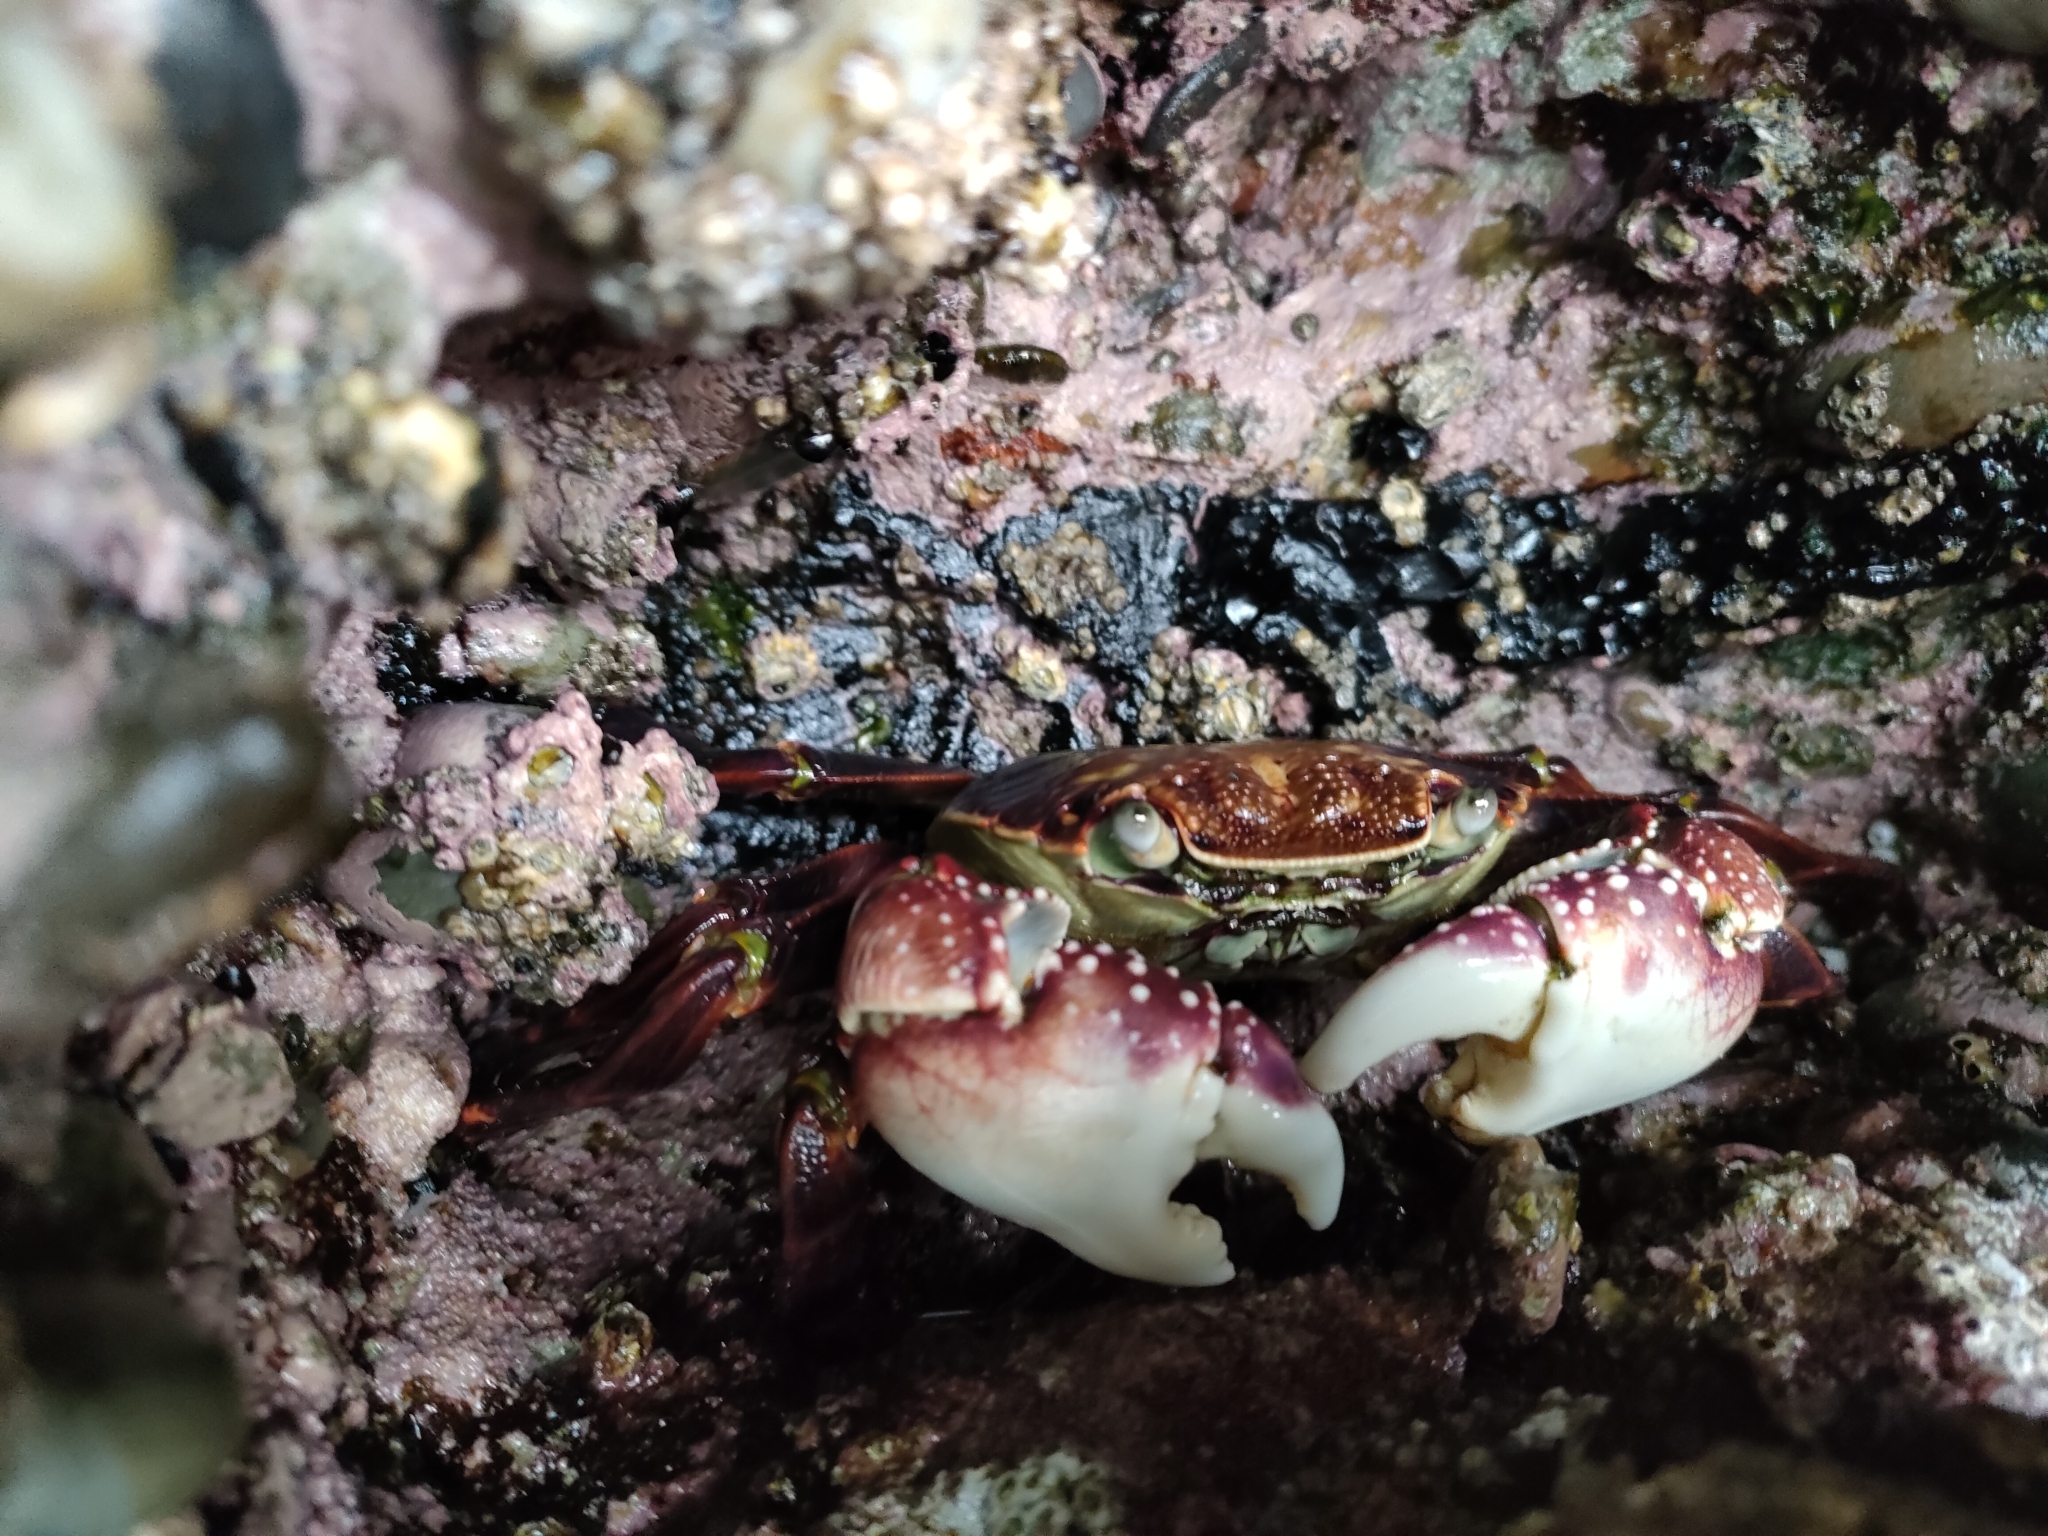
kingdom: Animalia
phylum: Arthropoda
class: Malacostraca
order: Decapoda
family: Grapsidae
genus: Leptograpsus
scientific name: Leptograpsus variegatus
